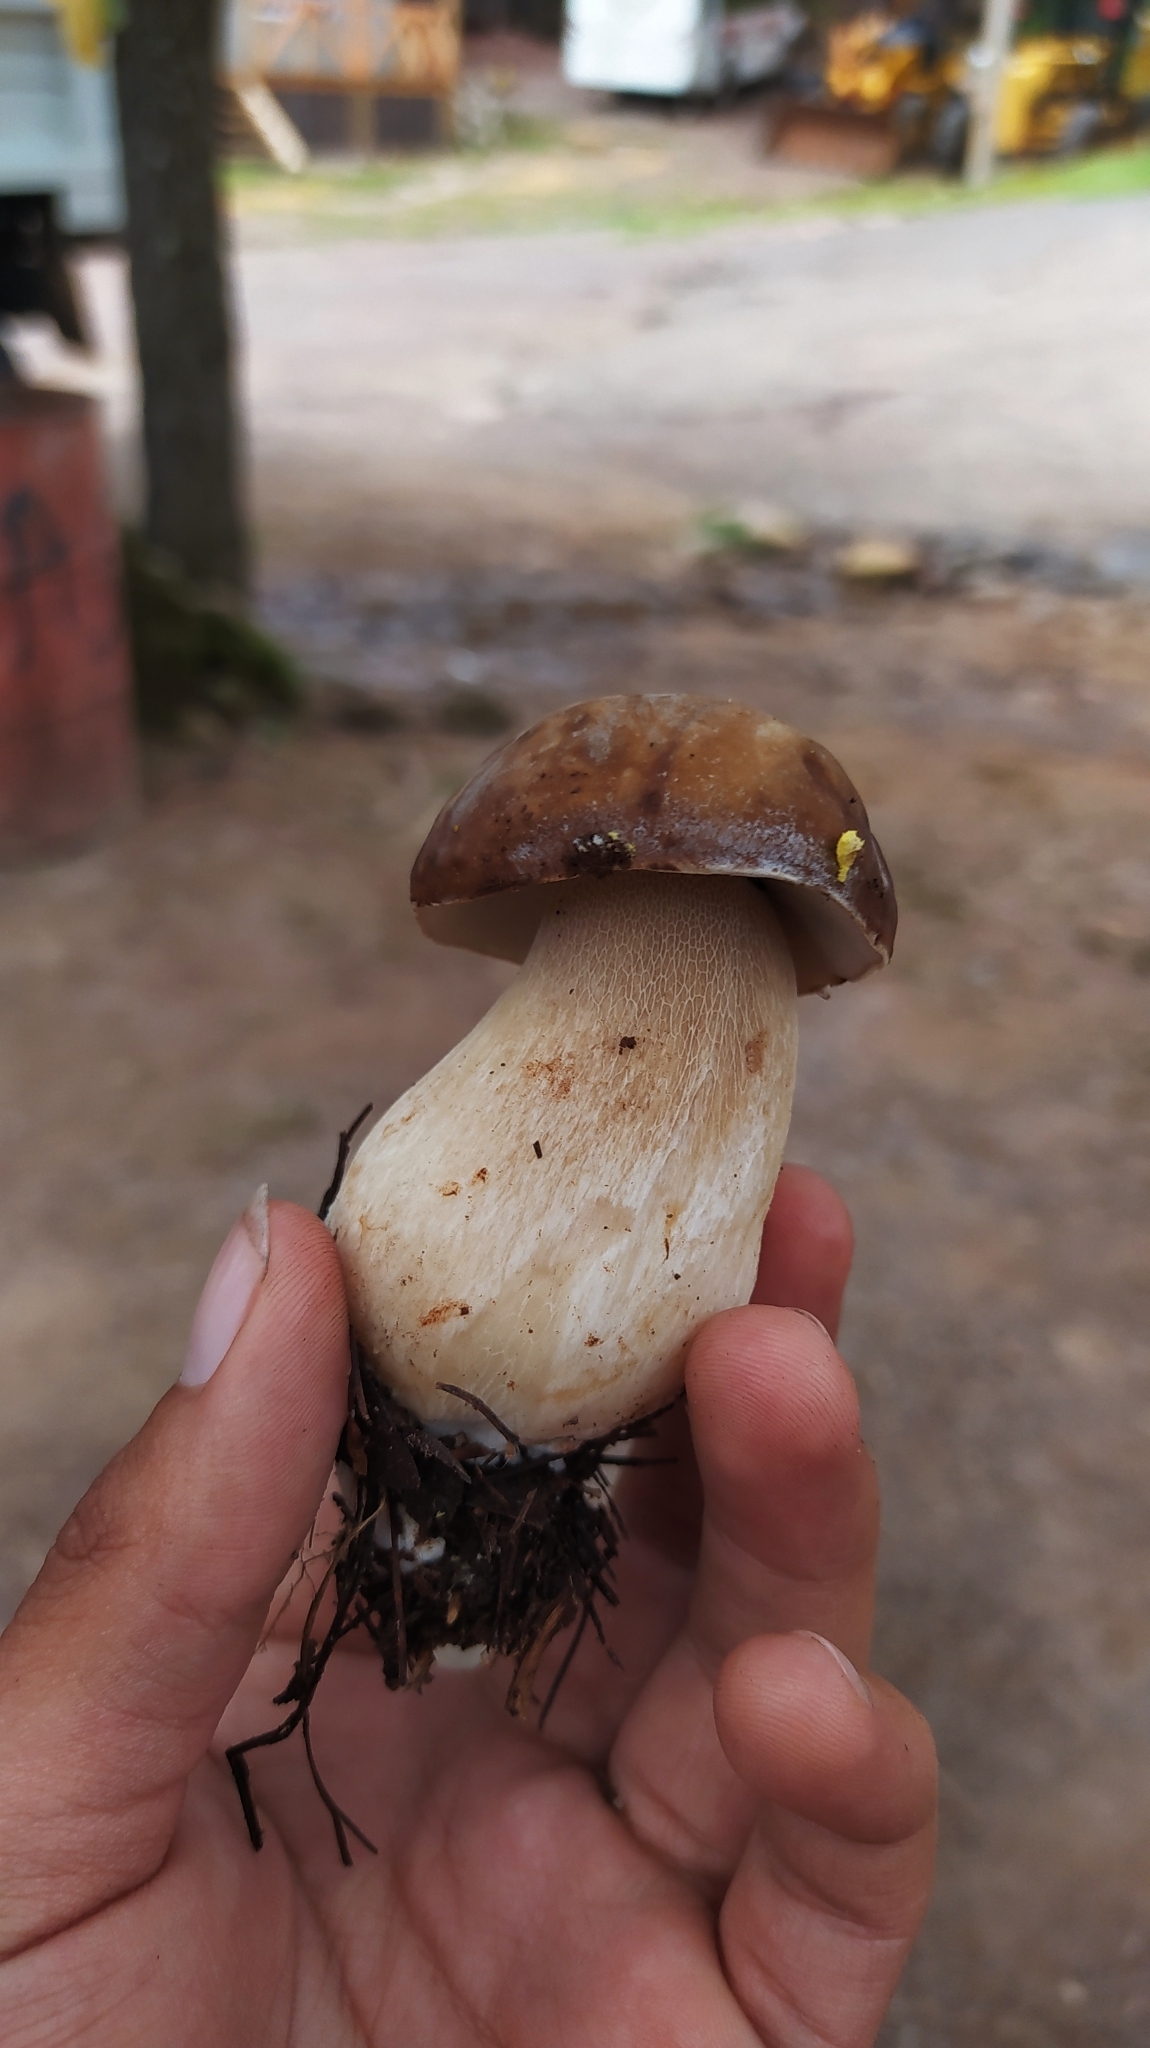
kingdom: Fungi
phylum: Basidiomycota
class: Agaricomycetes
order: Boletales
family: Boletaceae
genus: Boletus
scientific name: Boletus variipes
